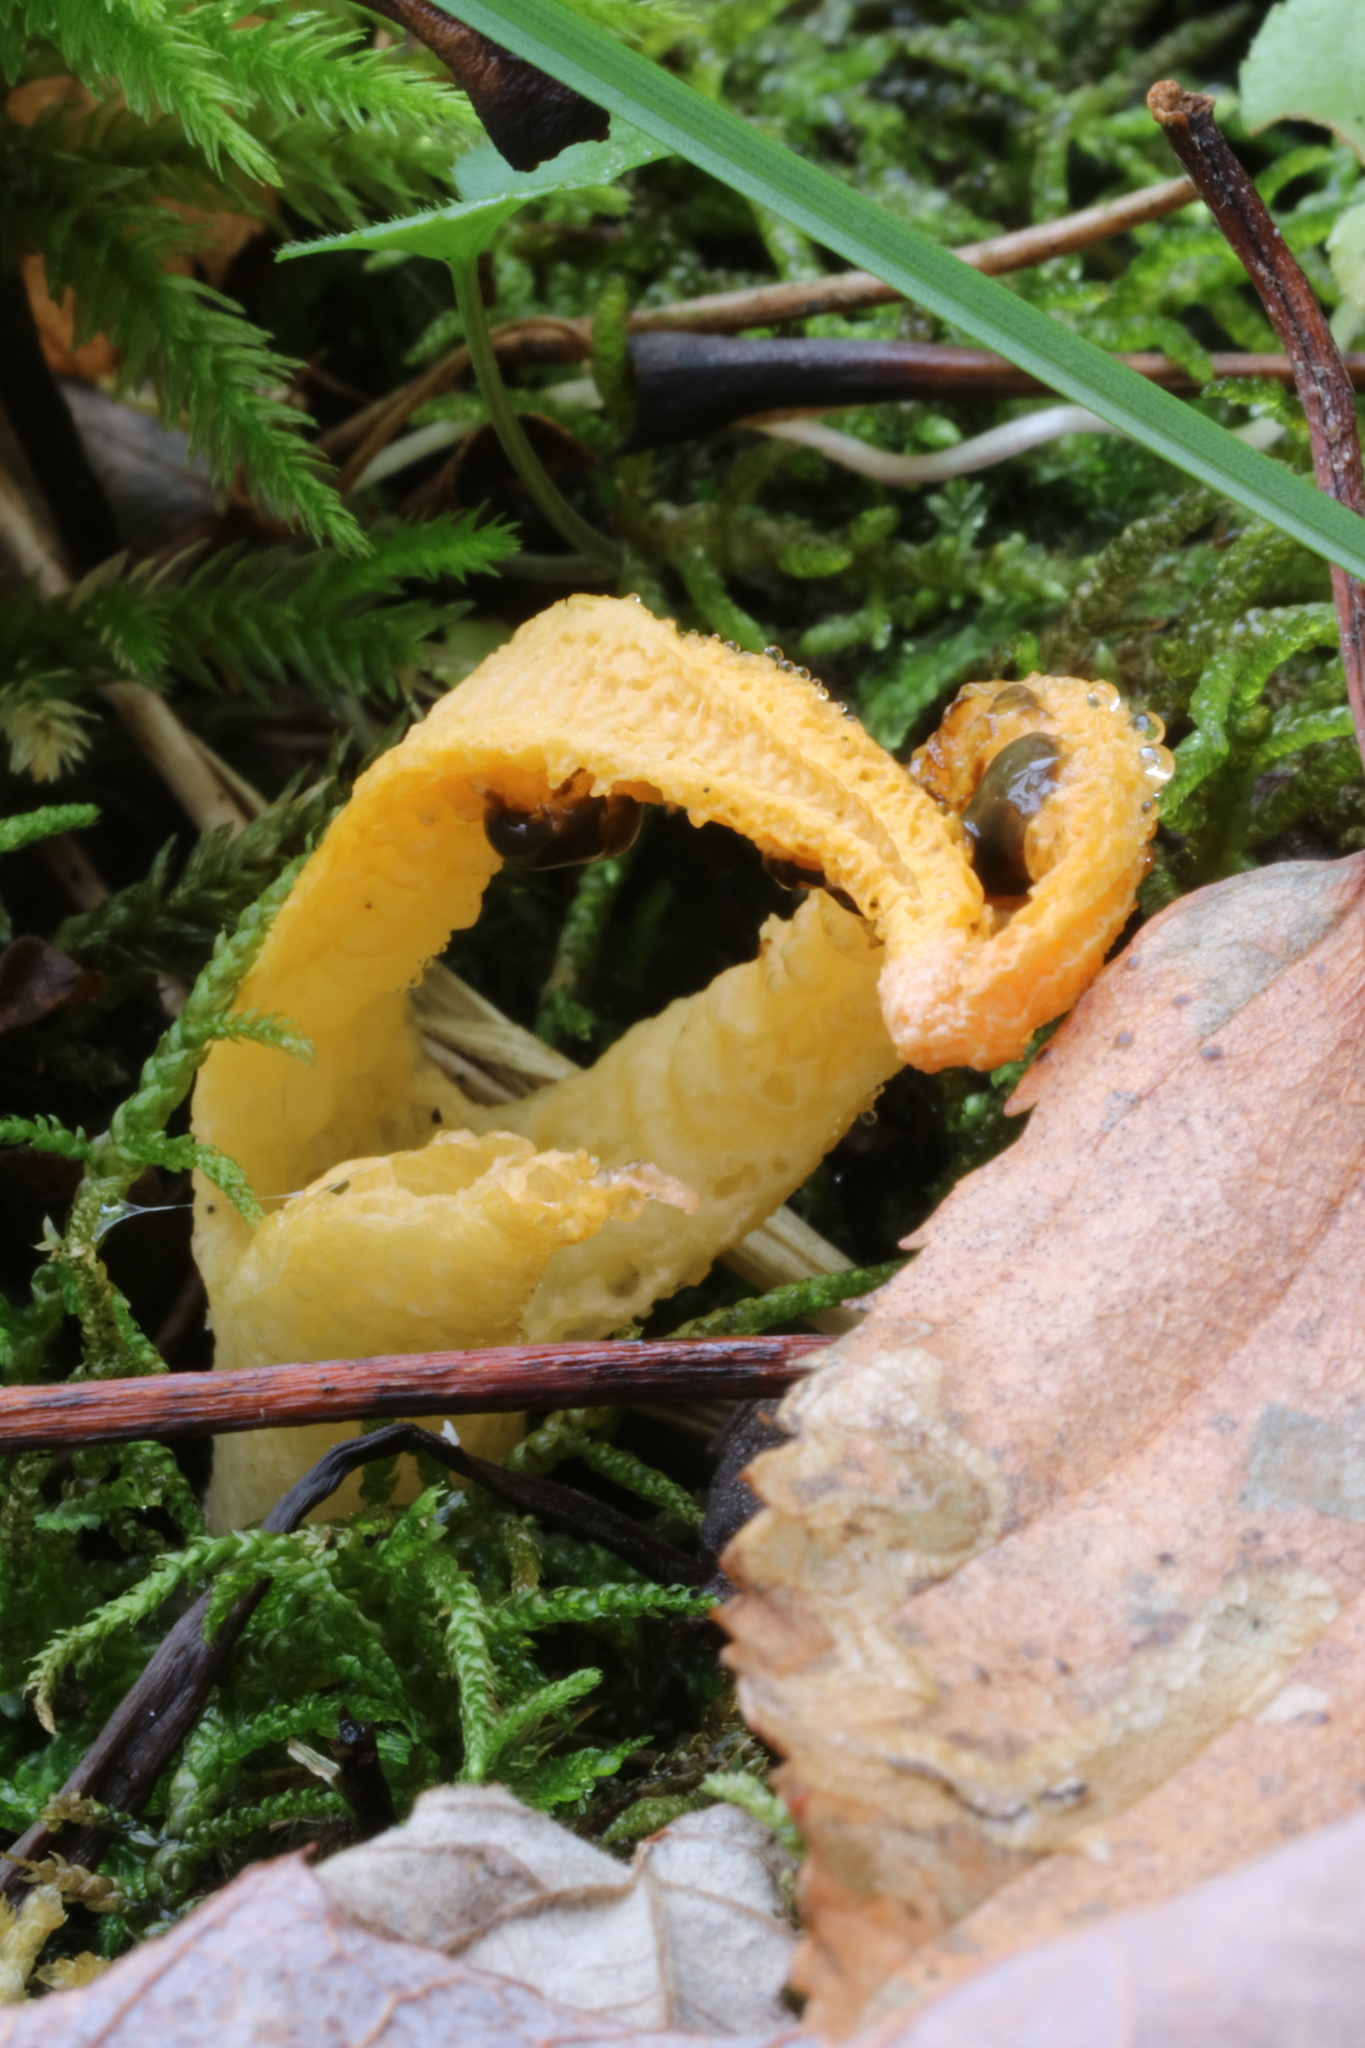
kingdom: Fungi
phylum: Basidiomycota
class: Agaricomycetes
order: Phallales
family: Phallaceae
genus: Pseudocolus
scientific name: Pseudocolus fusiformis
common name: Stinky squid
